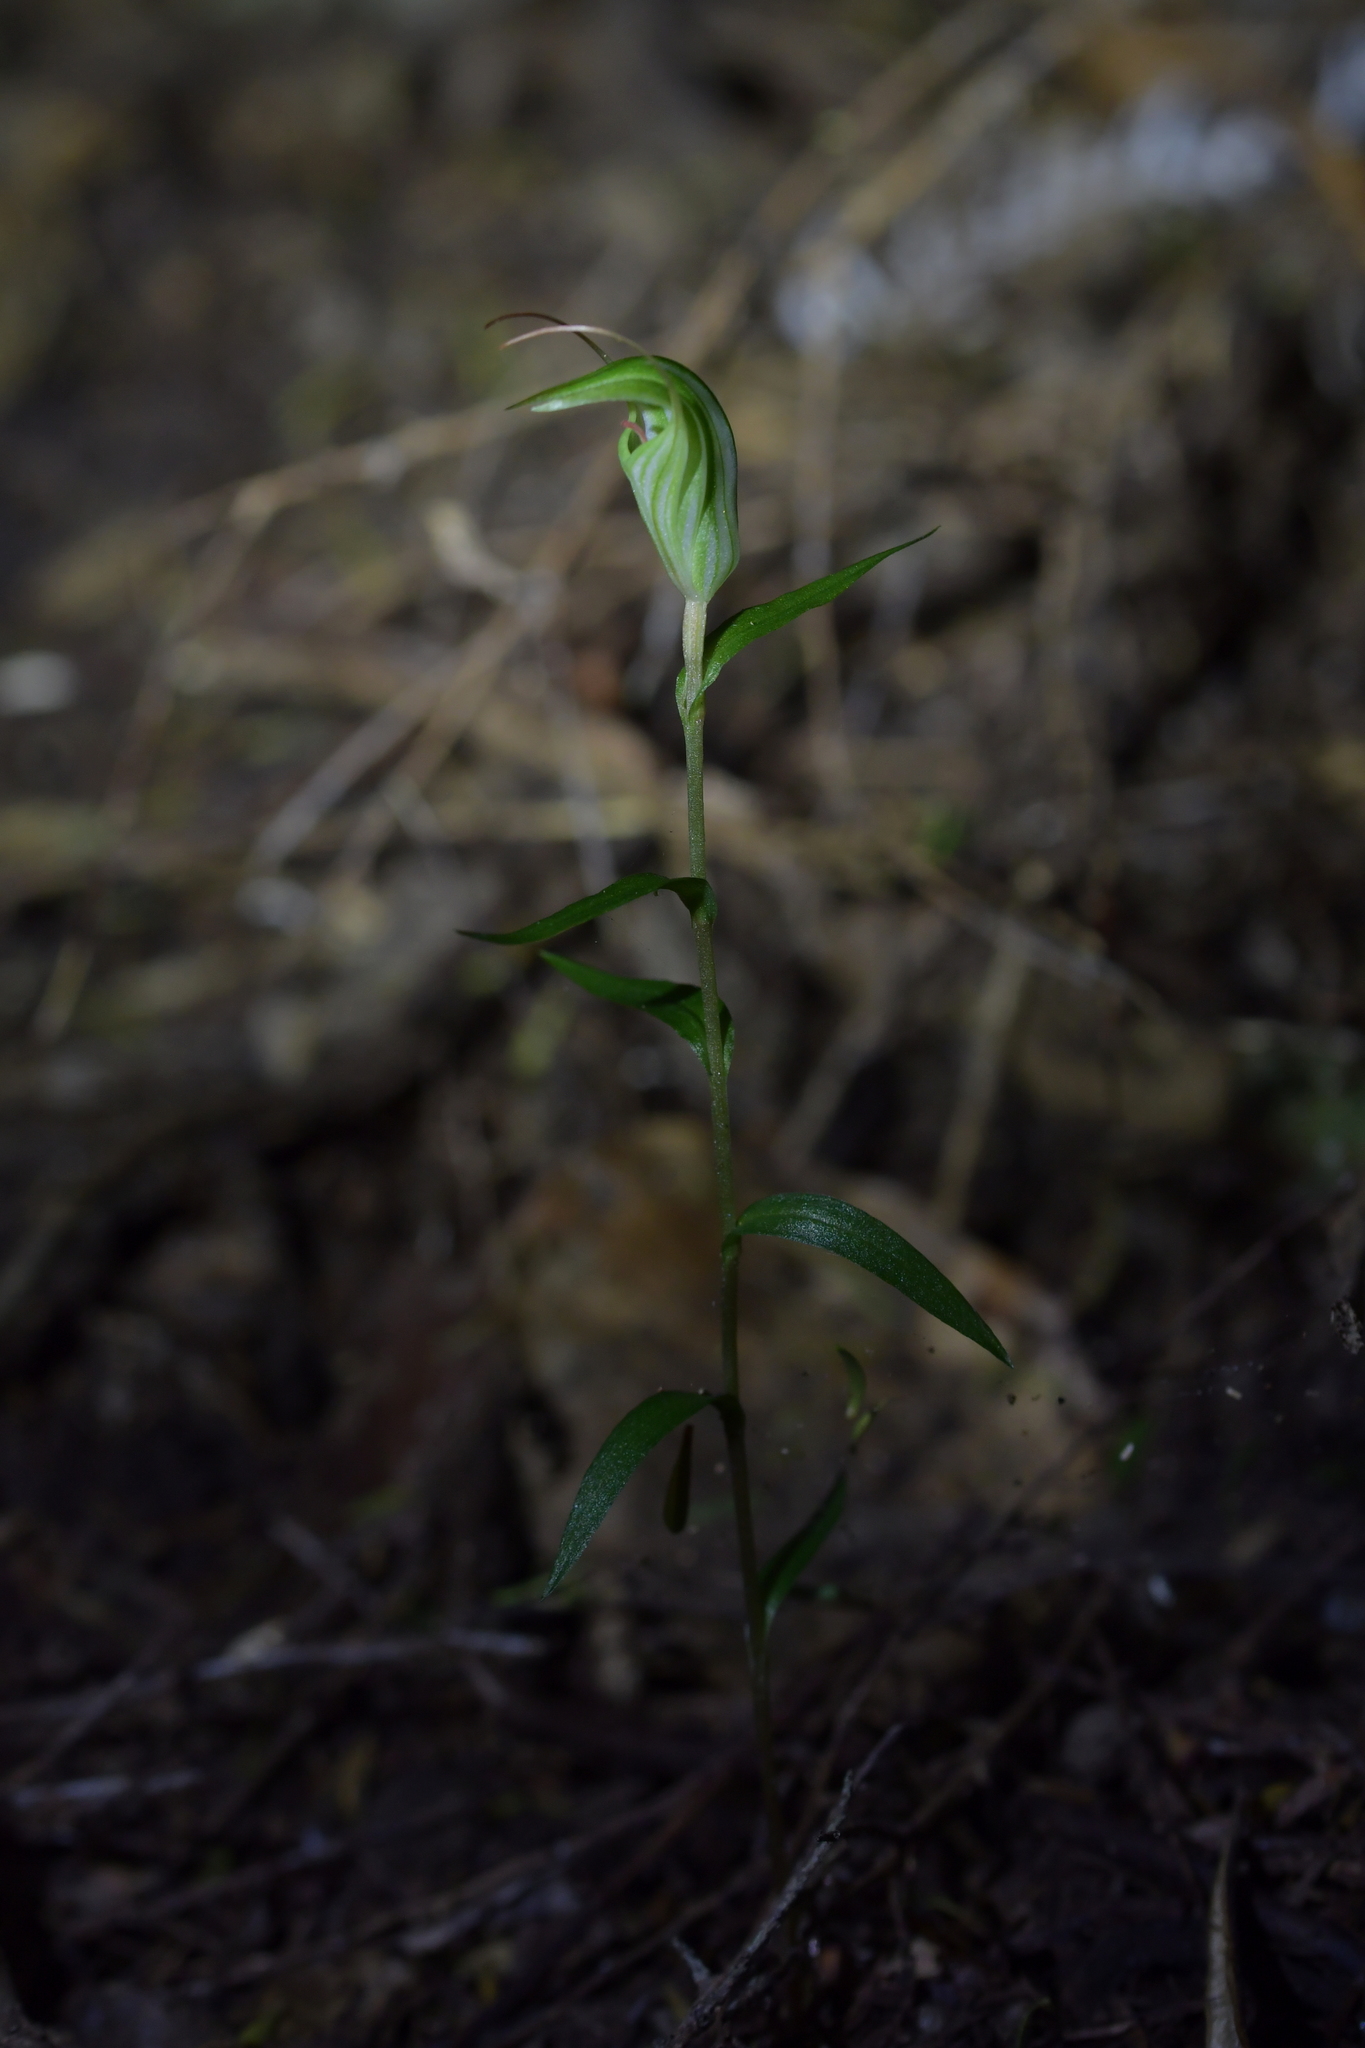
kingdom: Plantae
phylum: Tracheophyta
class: Liliopsida
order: Asparagales
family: Orchidaceae
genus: Pterostylis
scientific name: Pterostylis alobula
